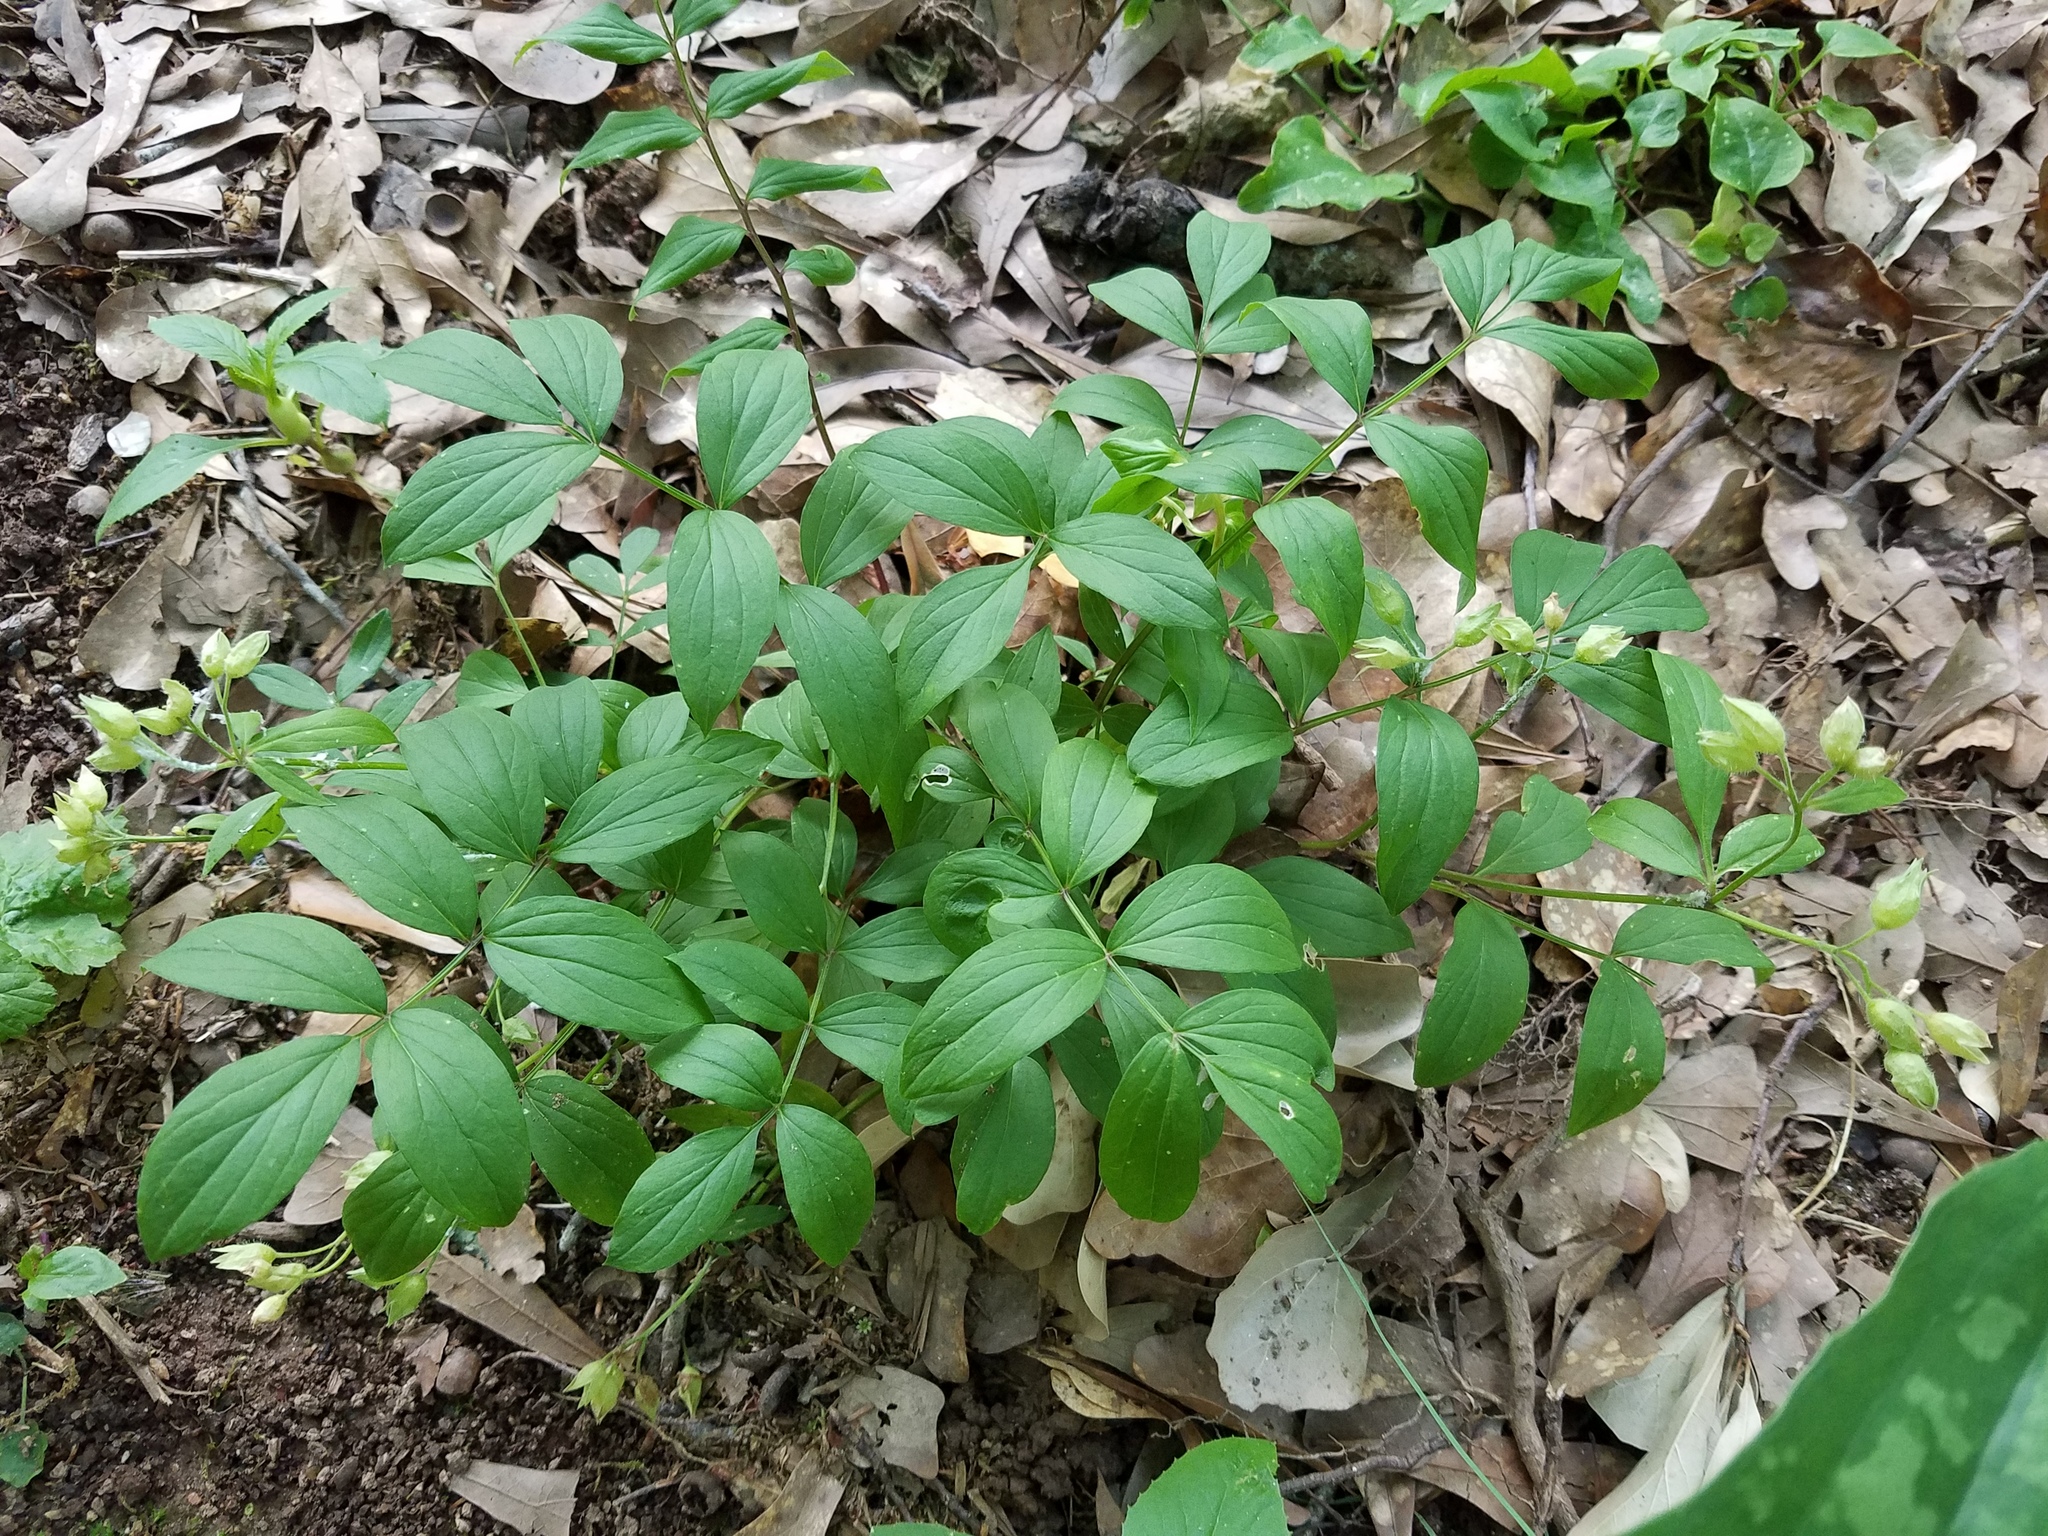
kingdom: Plantae
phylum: Tracheophyta
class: Magnoliopsida
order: Ericales
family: Polemoniaceae
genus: Polemonium
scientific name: Polemonium reptans
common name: Creeping jacob's-ladder
